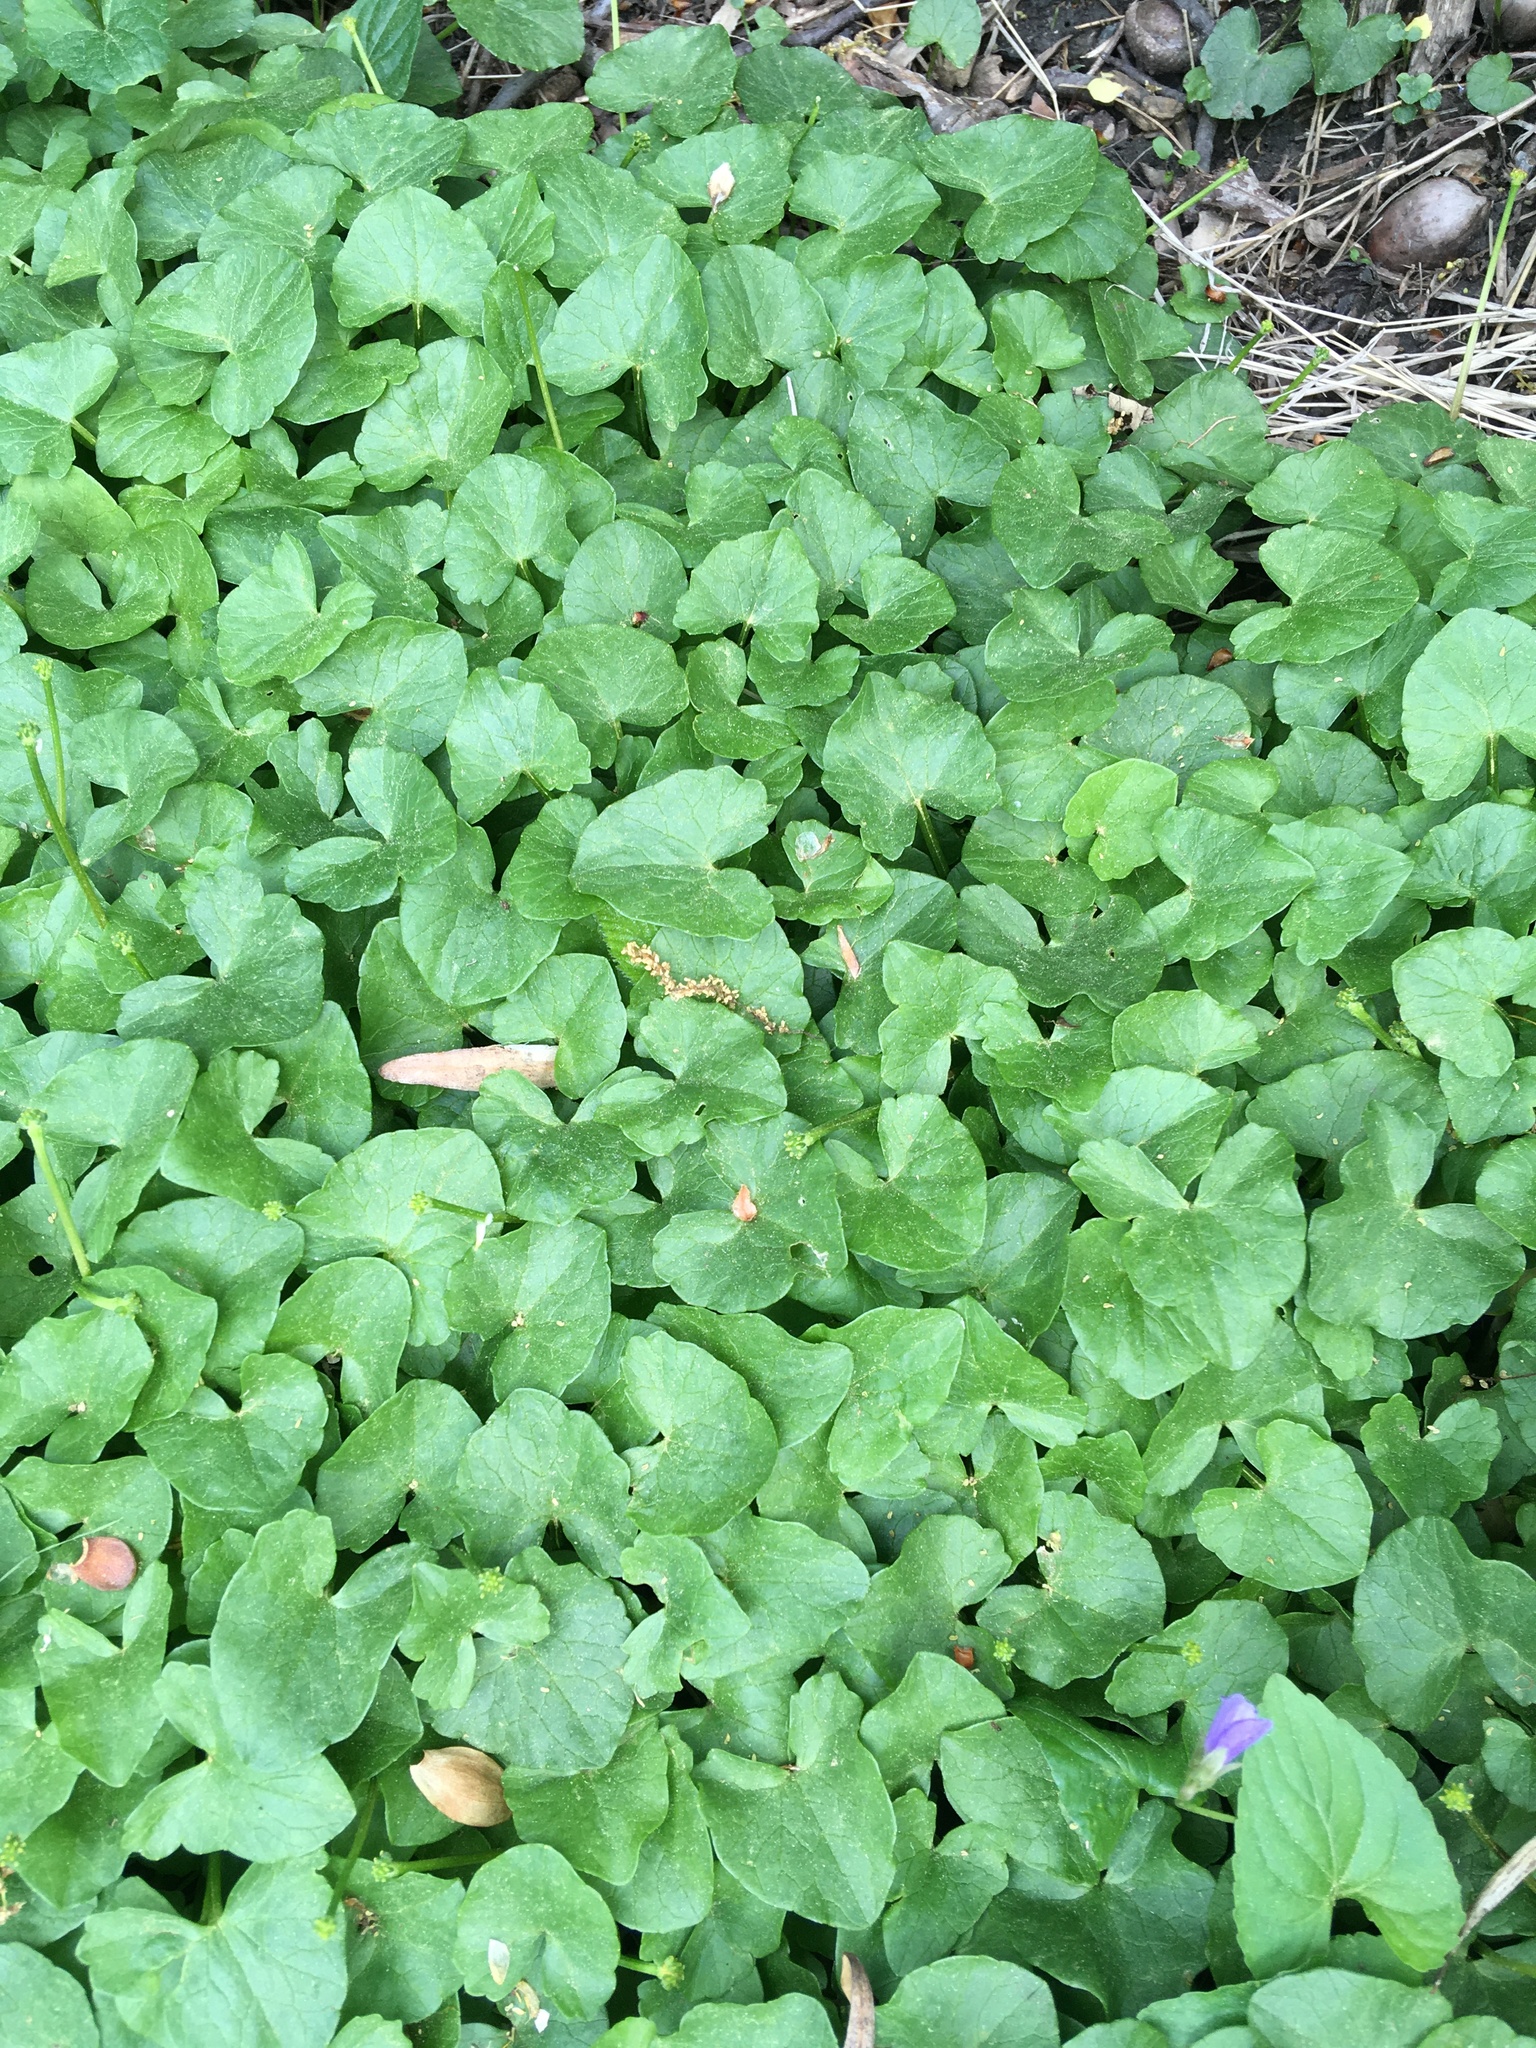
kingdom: Plantae
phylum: Tracheophyta
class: Magnoliopsida
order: Ranunculales
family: Ranunculaceae
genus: Ficaria
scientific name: Ficaria verna
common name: Lesser celandine
